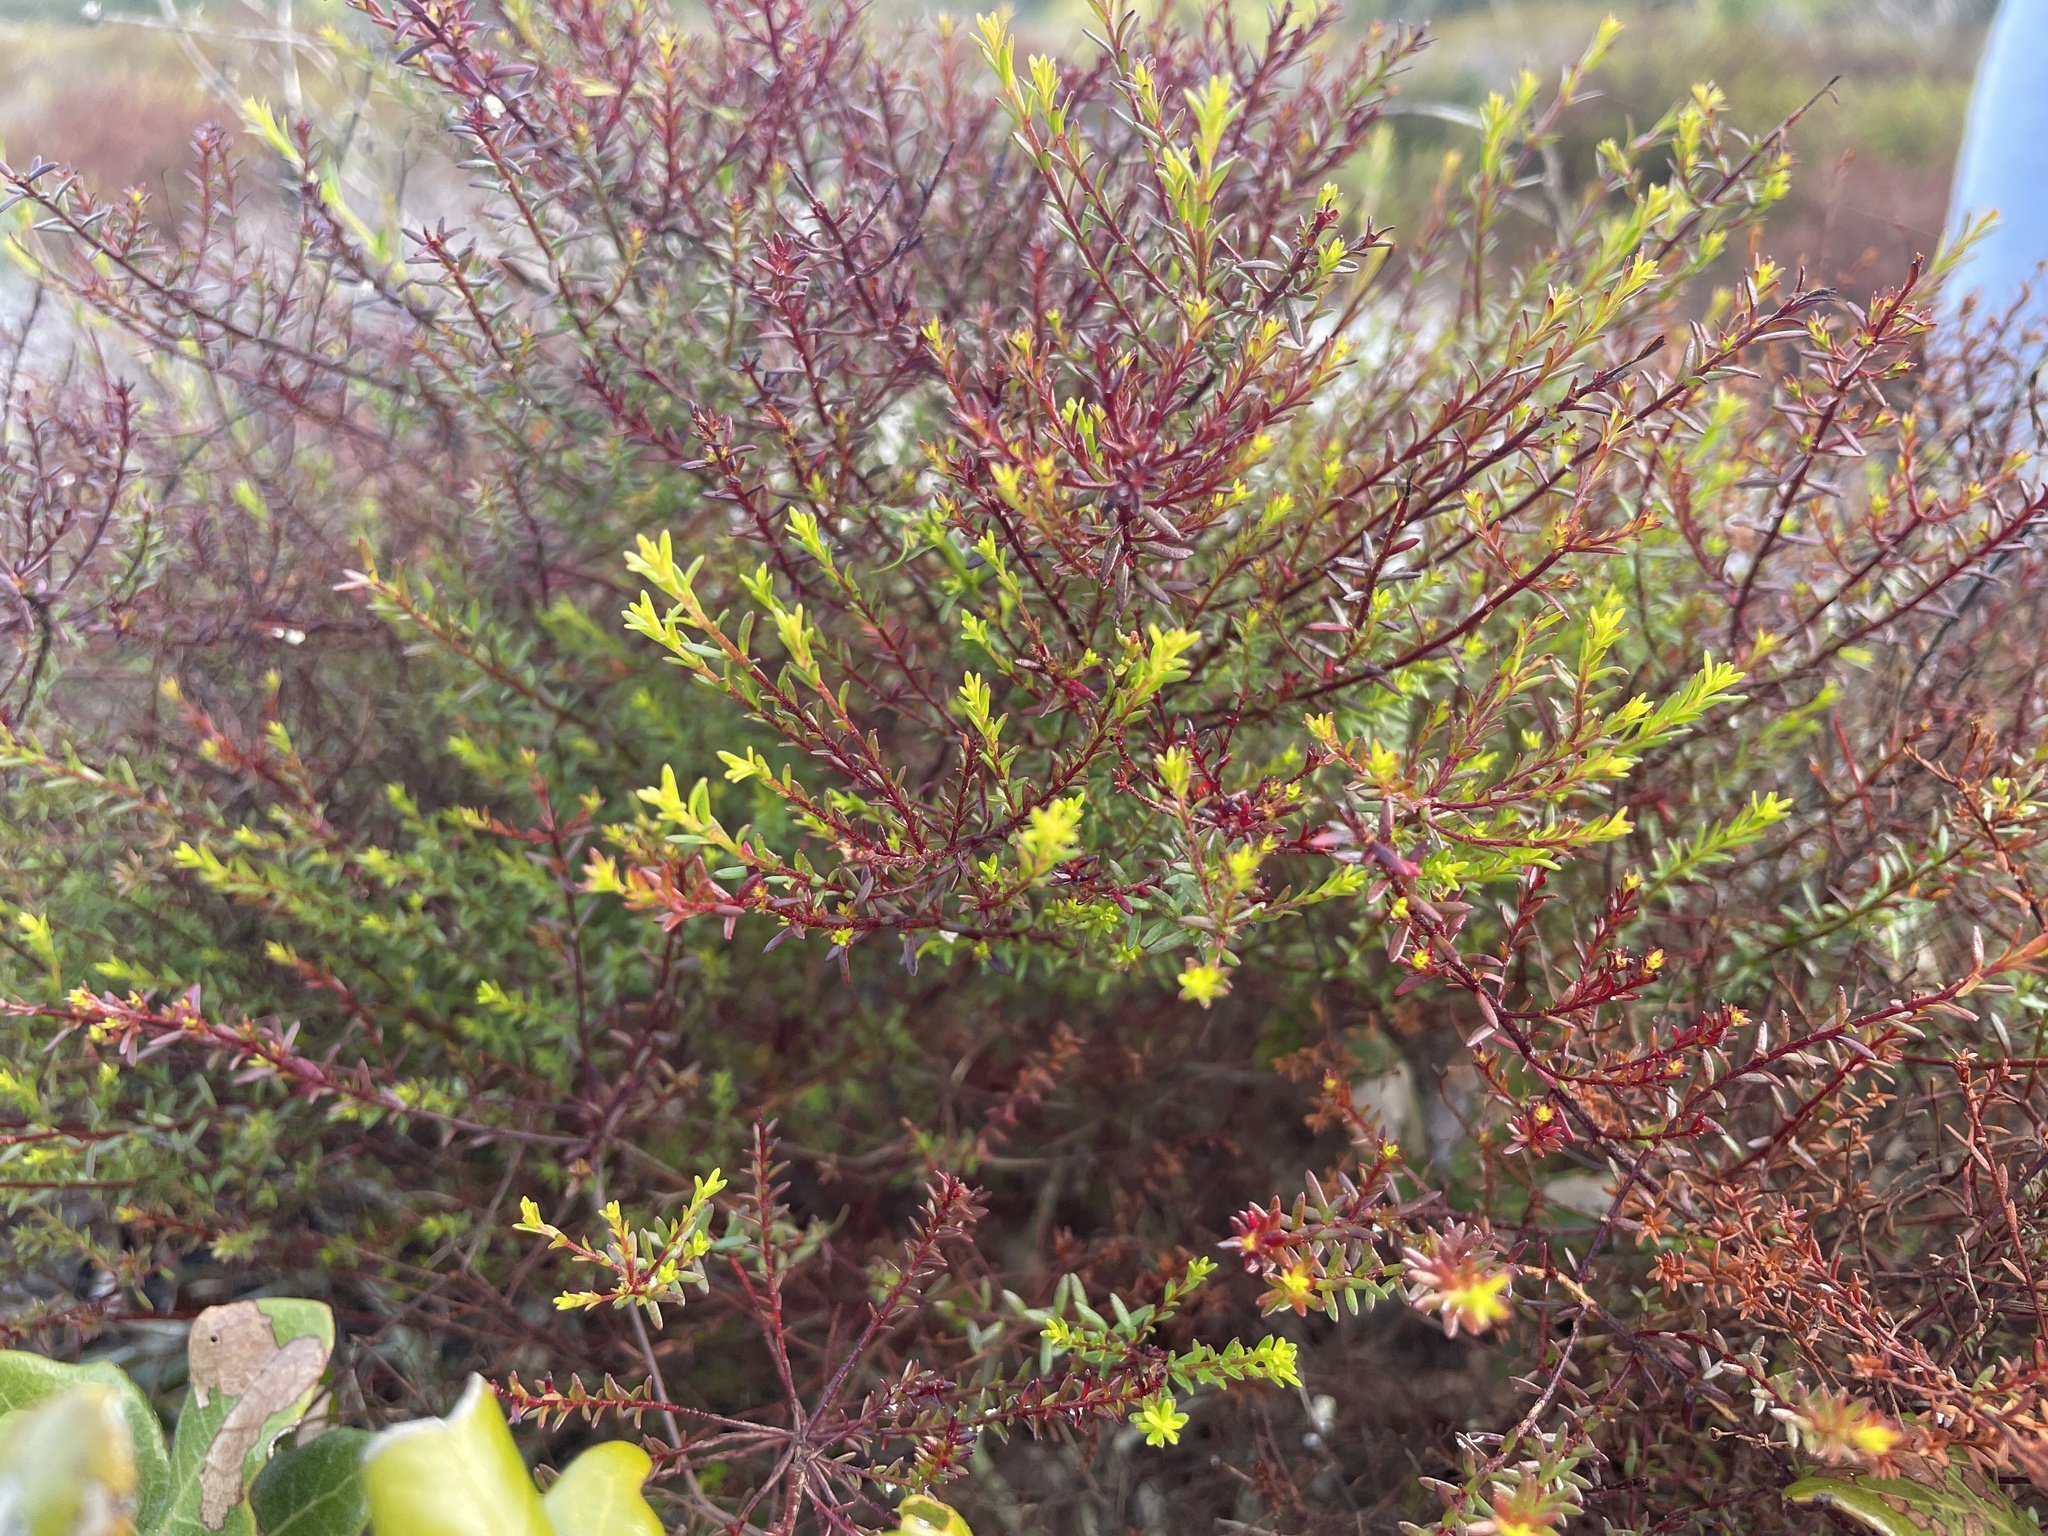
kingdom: Plantae
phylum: Tracheophyta
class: Magnoliopsida
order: Malvales
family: Cistaceae
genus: Lechea
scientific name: Lechea deckertii
